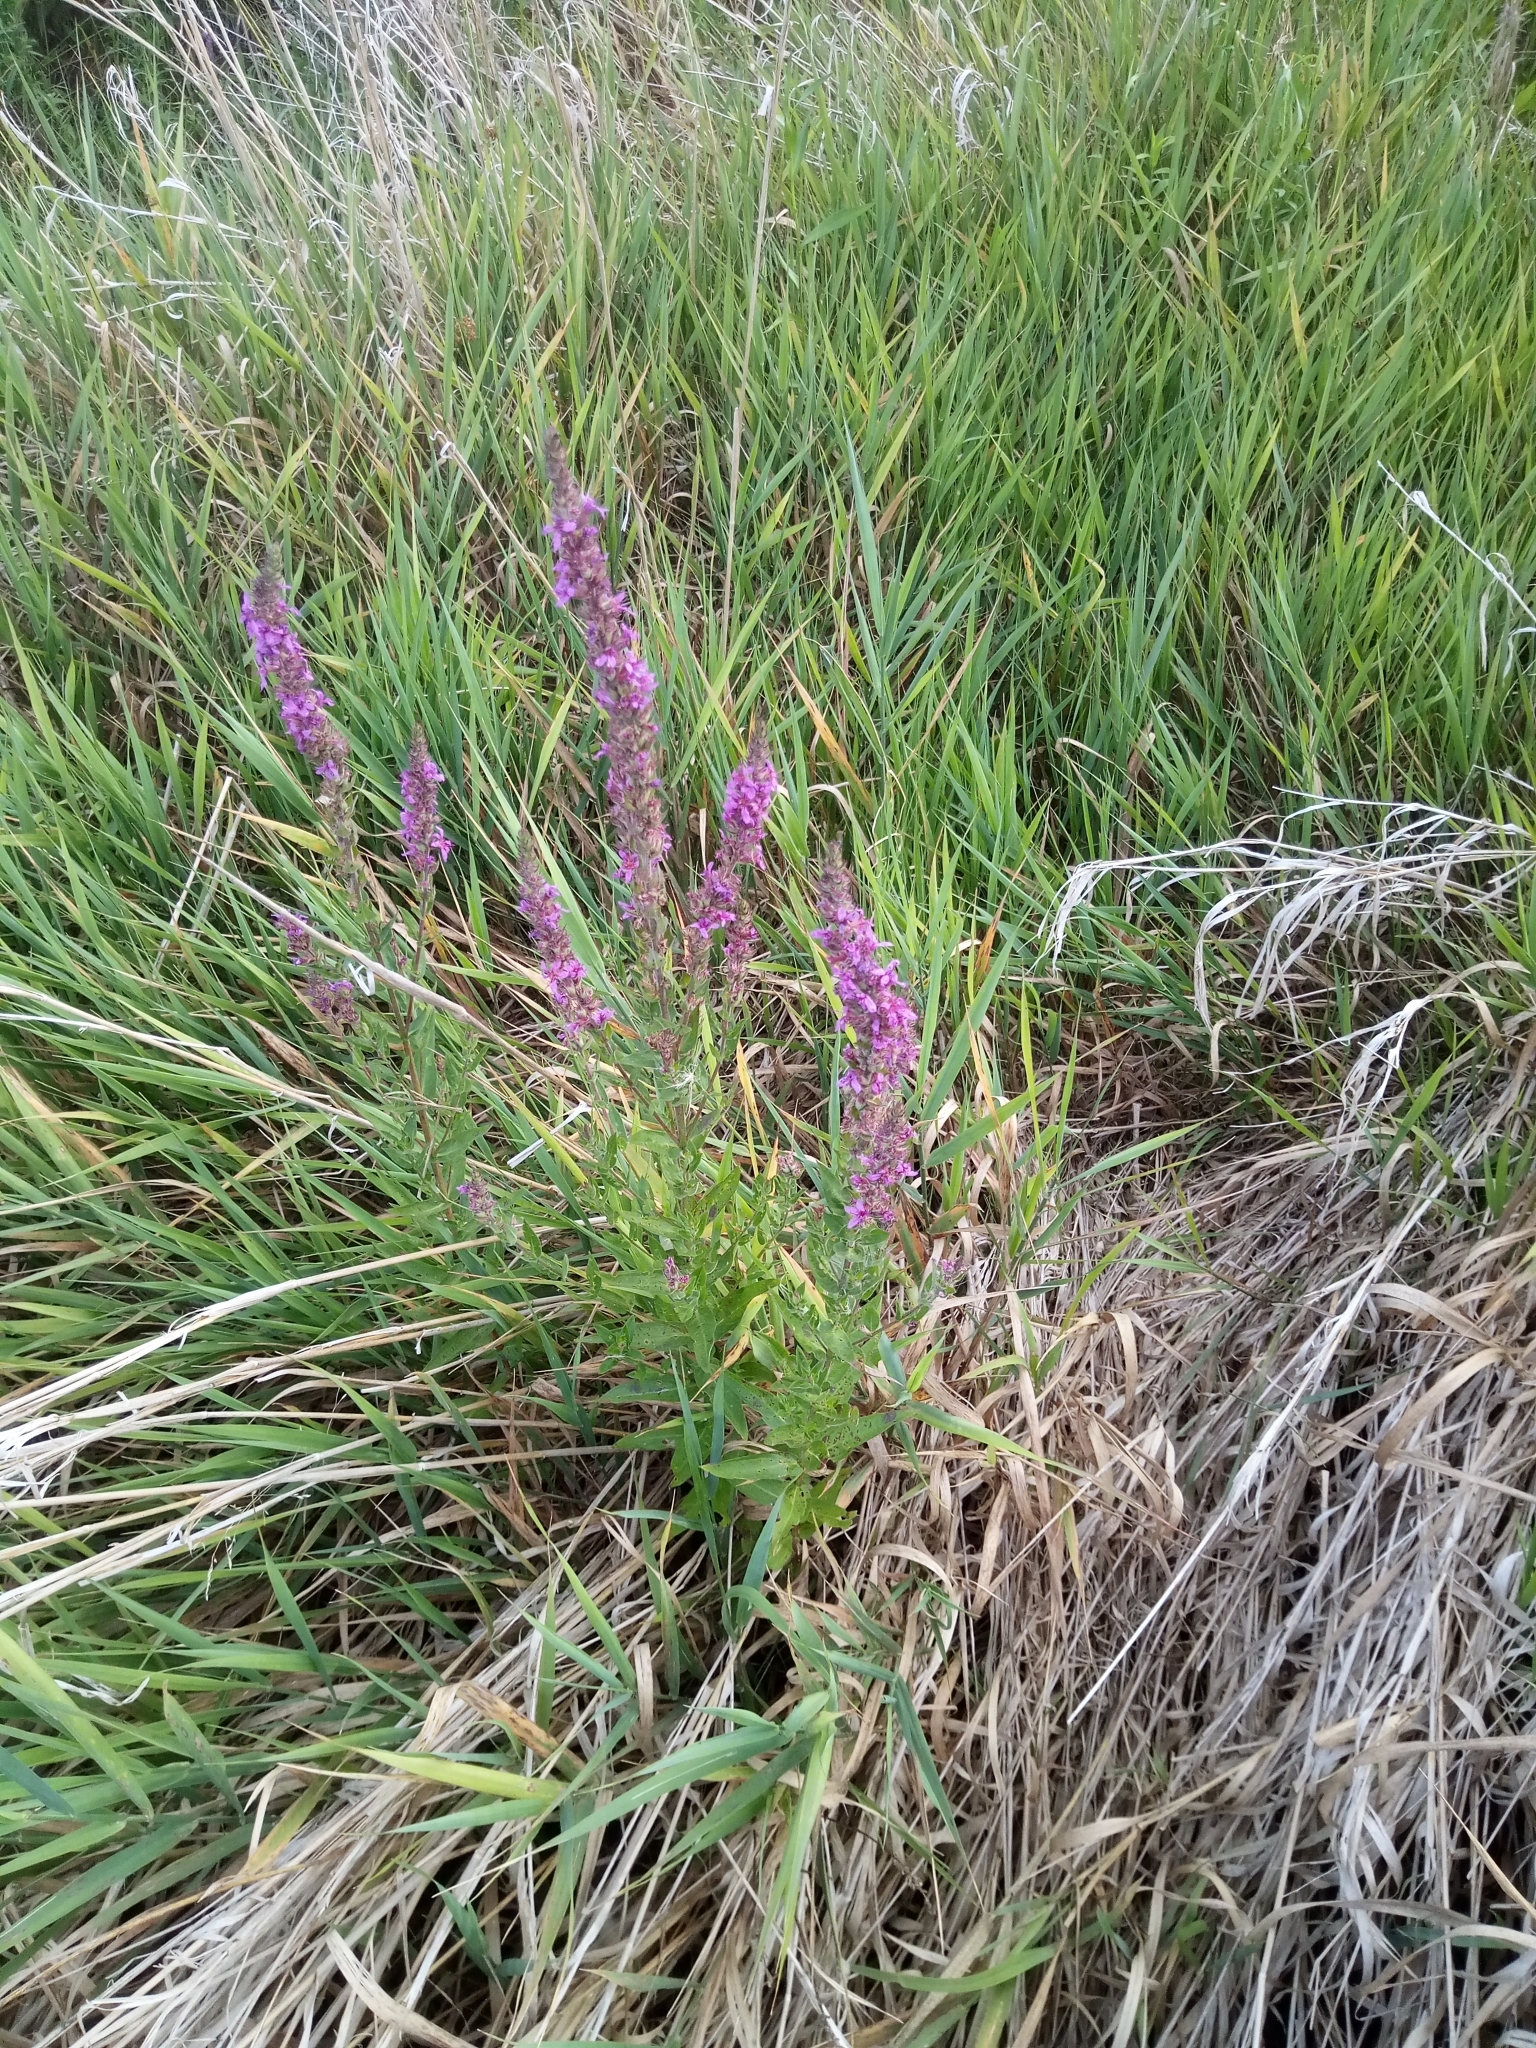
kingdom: Plantae
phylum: Tracheophyta
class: Magnoliopsida
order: Myrtales
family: Lythraceae
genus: Lythrum
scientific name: Lythrum salicaria
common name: Purple loosestrife
